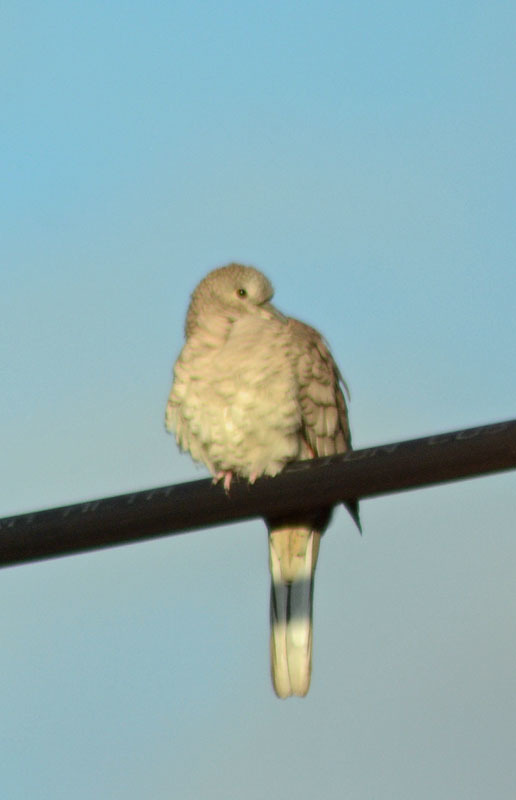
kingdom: Animalia
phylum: Chordata
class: Aves
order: Columbiformes
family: Columbidae
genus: Columbina
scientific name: Columbina inca
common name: Inca dove
